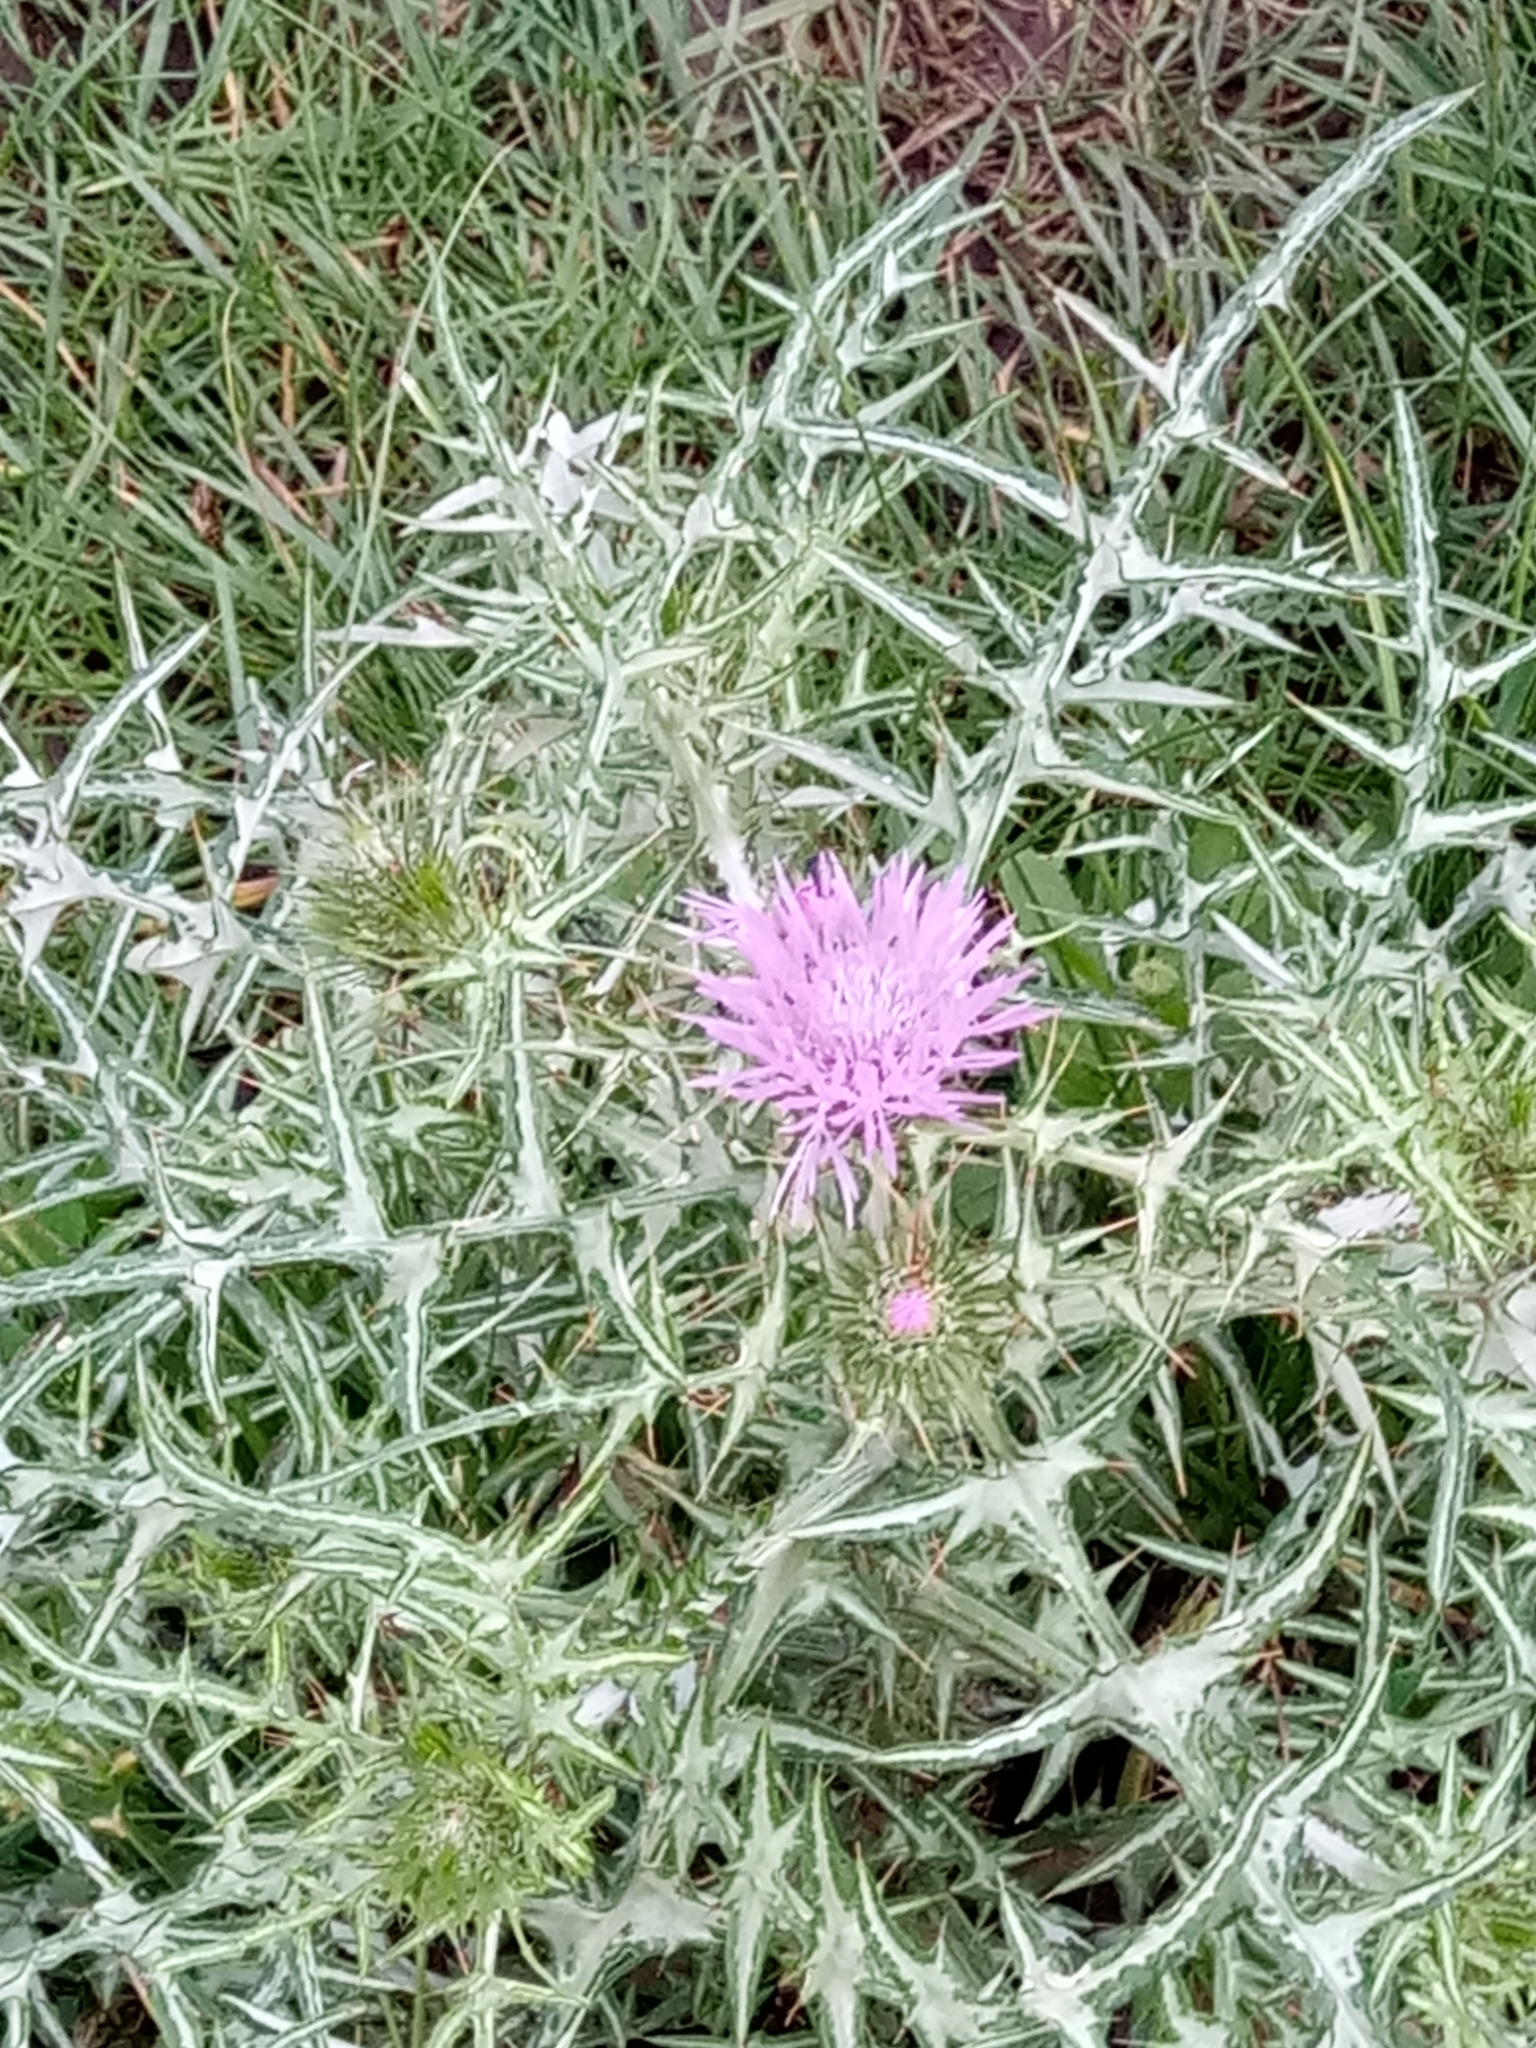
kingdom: Plantae
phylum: Tracheophyta
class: Magnoliopsida
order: Asterales
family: Asteraceae
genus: Galactites
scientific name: Galactites mutabilis
